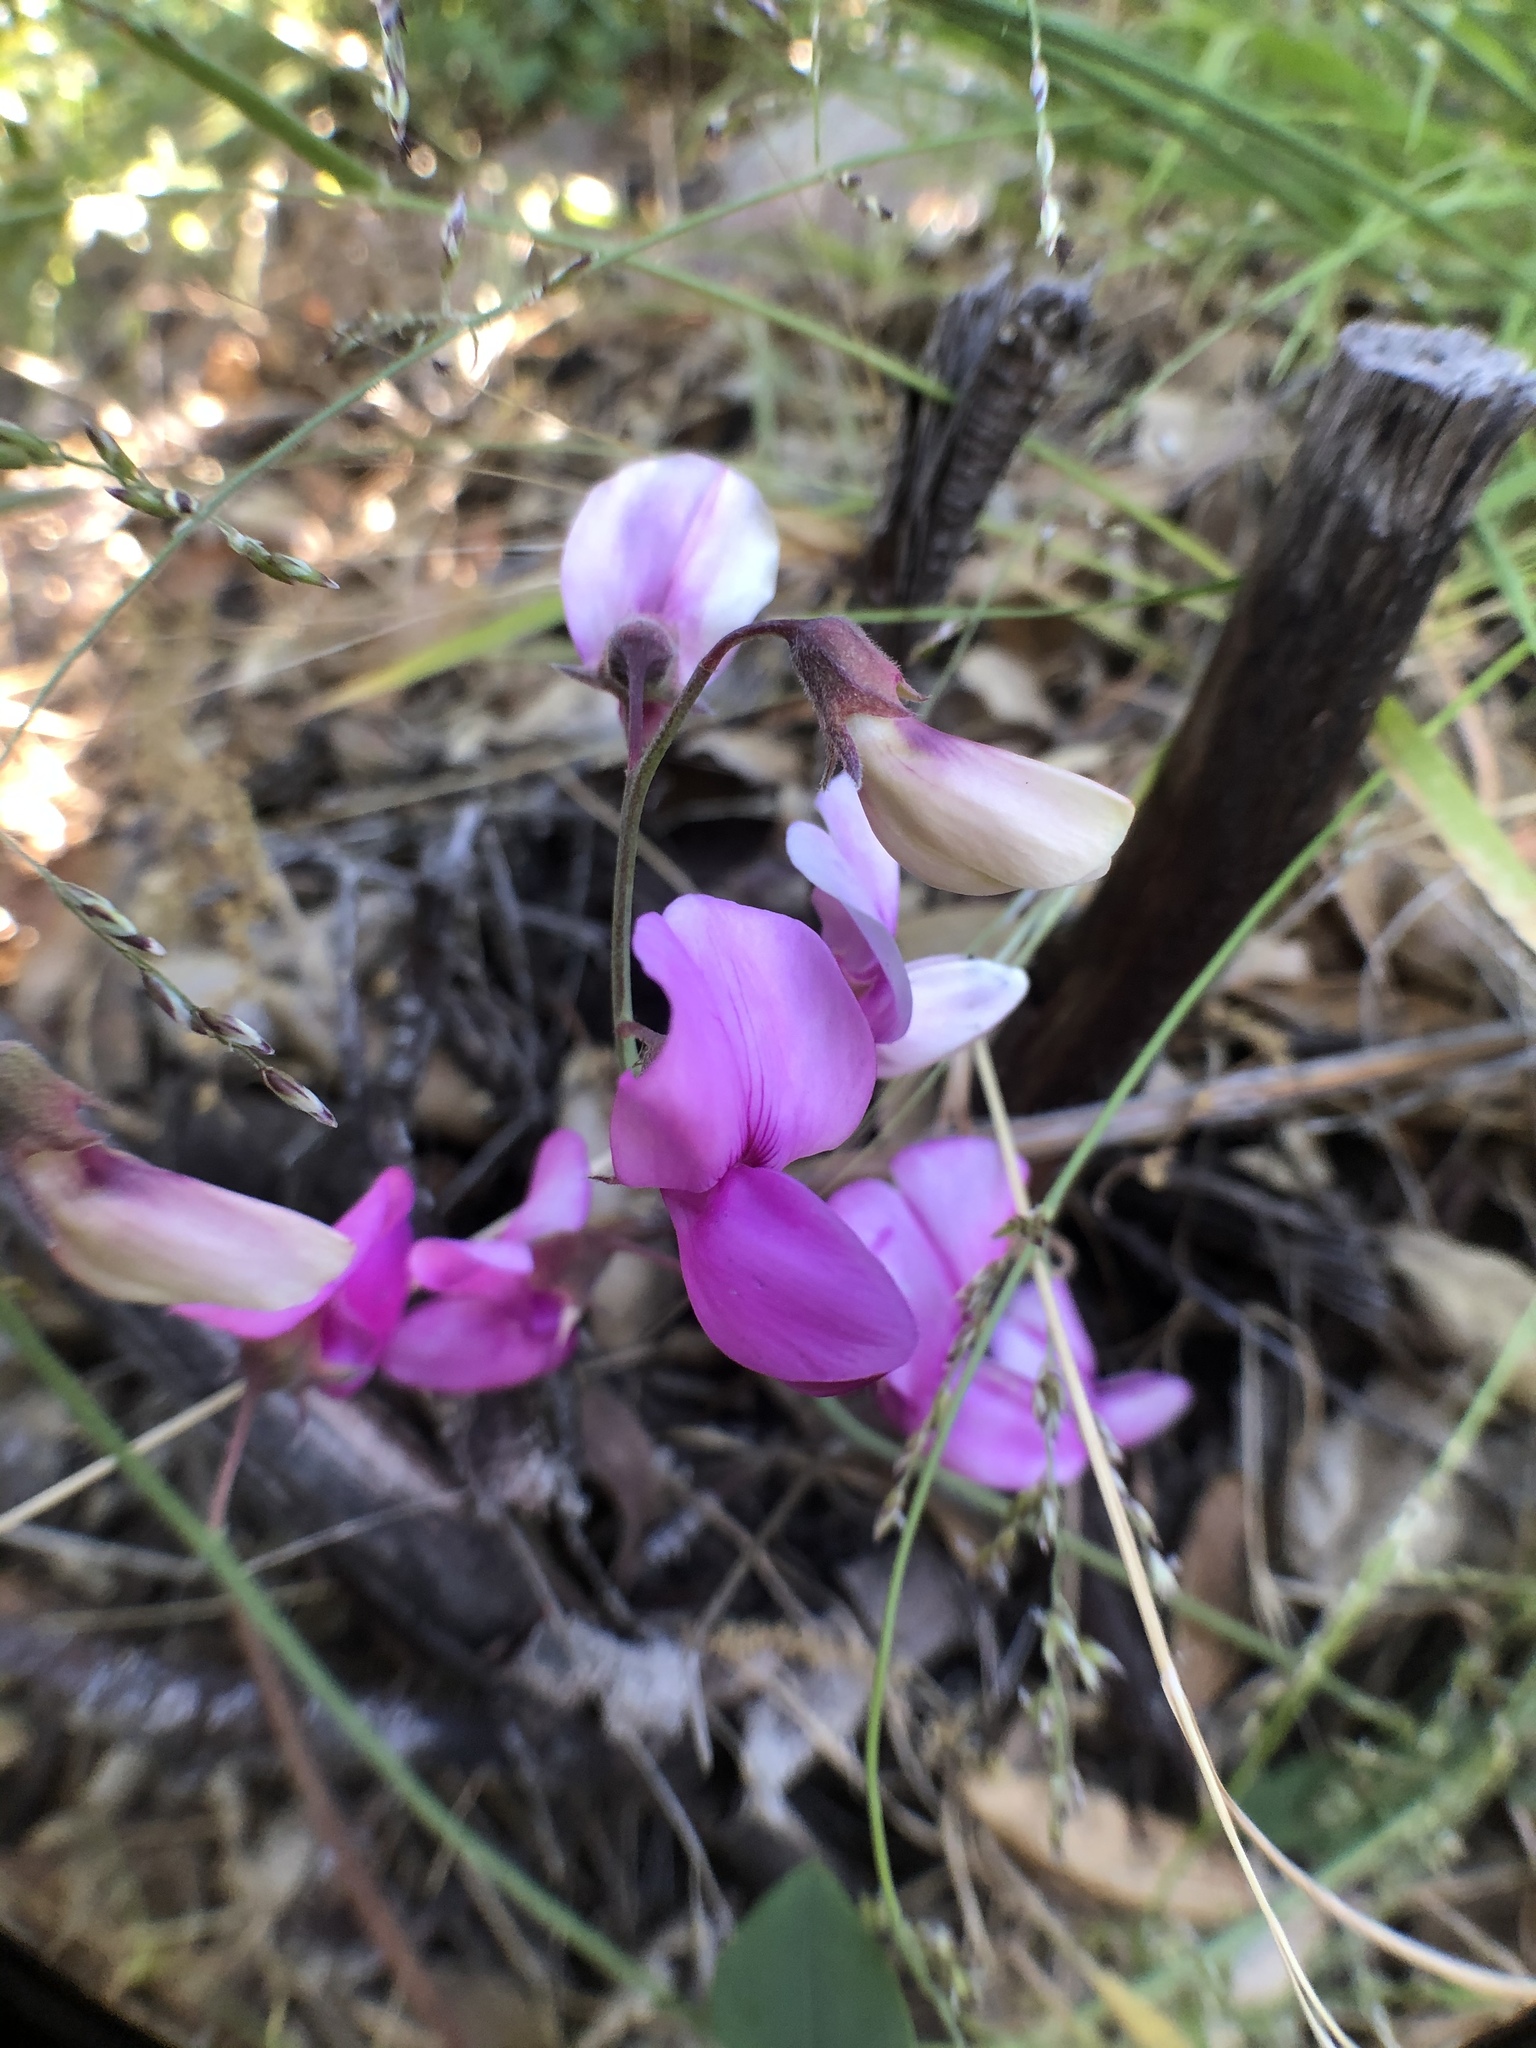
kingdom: Plantae
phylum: Tracheophyta
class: Magnoliopsida
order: Fabales
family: Fabaceae
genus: Lathyrus
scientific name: Lathyrus vestitus
